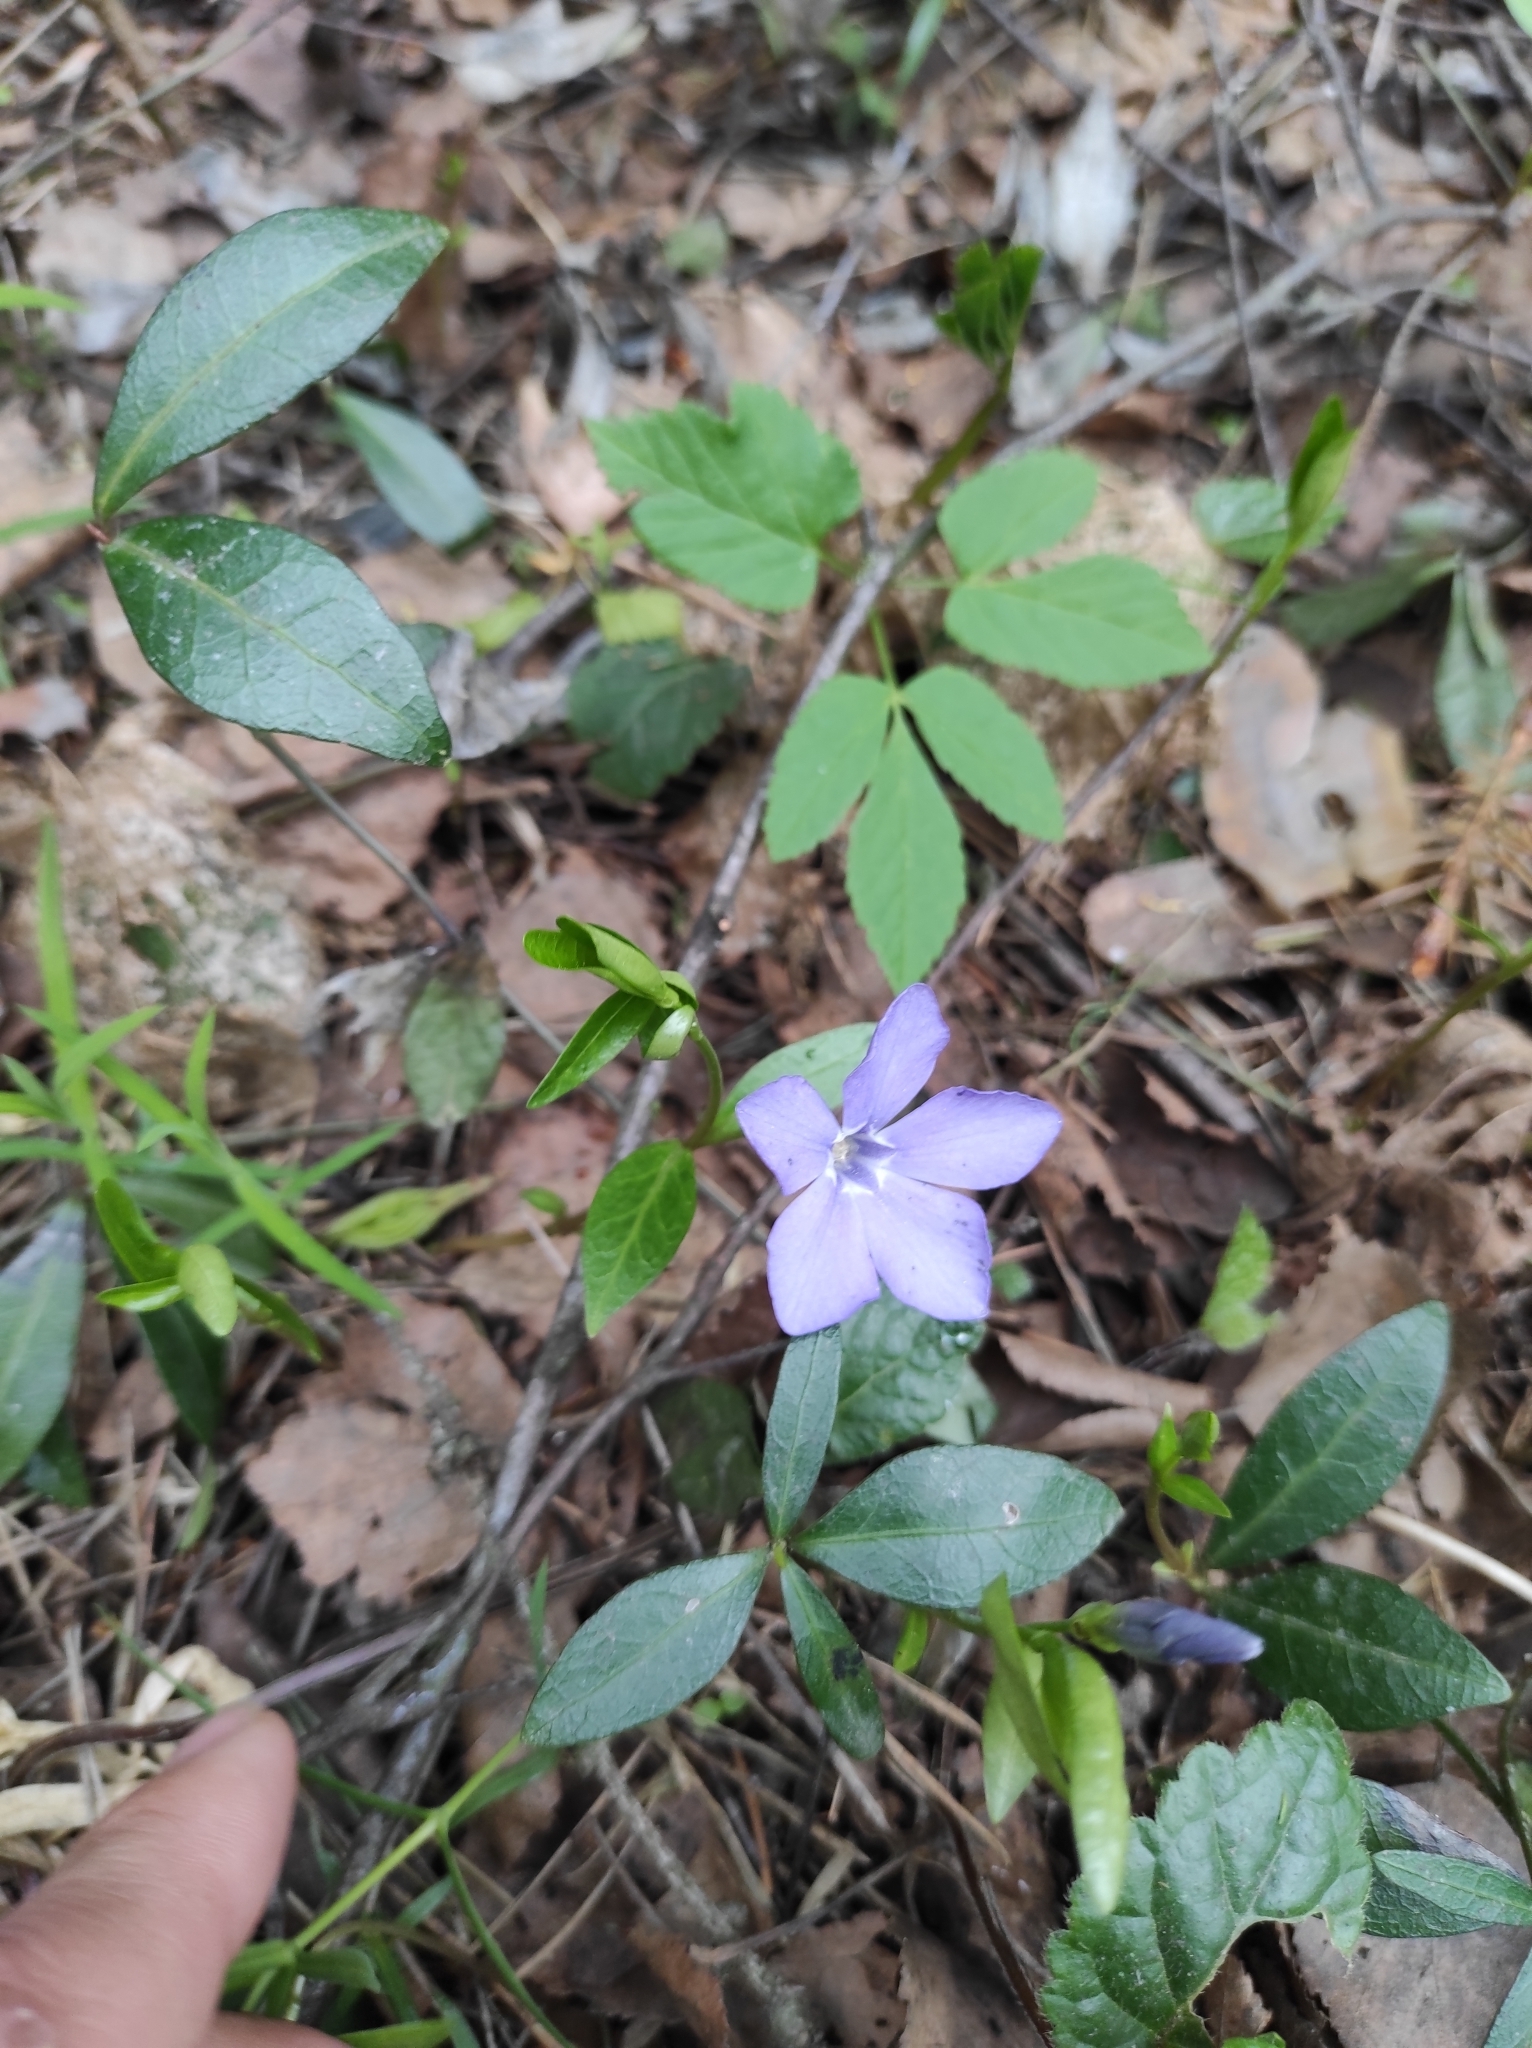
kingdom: Plantae
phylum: Tracheophyta
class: Magnoliopsida
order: Gentianales
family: Apocynaceae
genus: Vinca
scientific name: Vinca minor
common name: Lesser periwinkle
